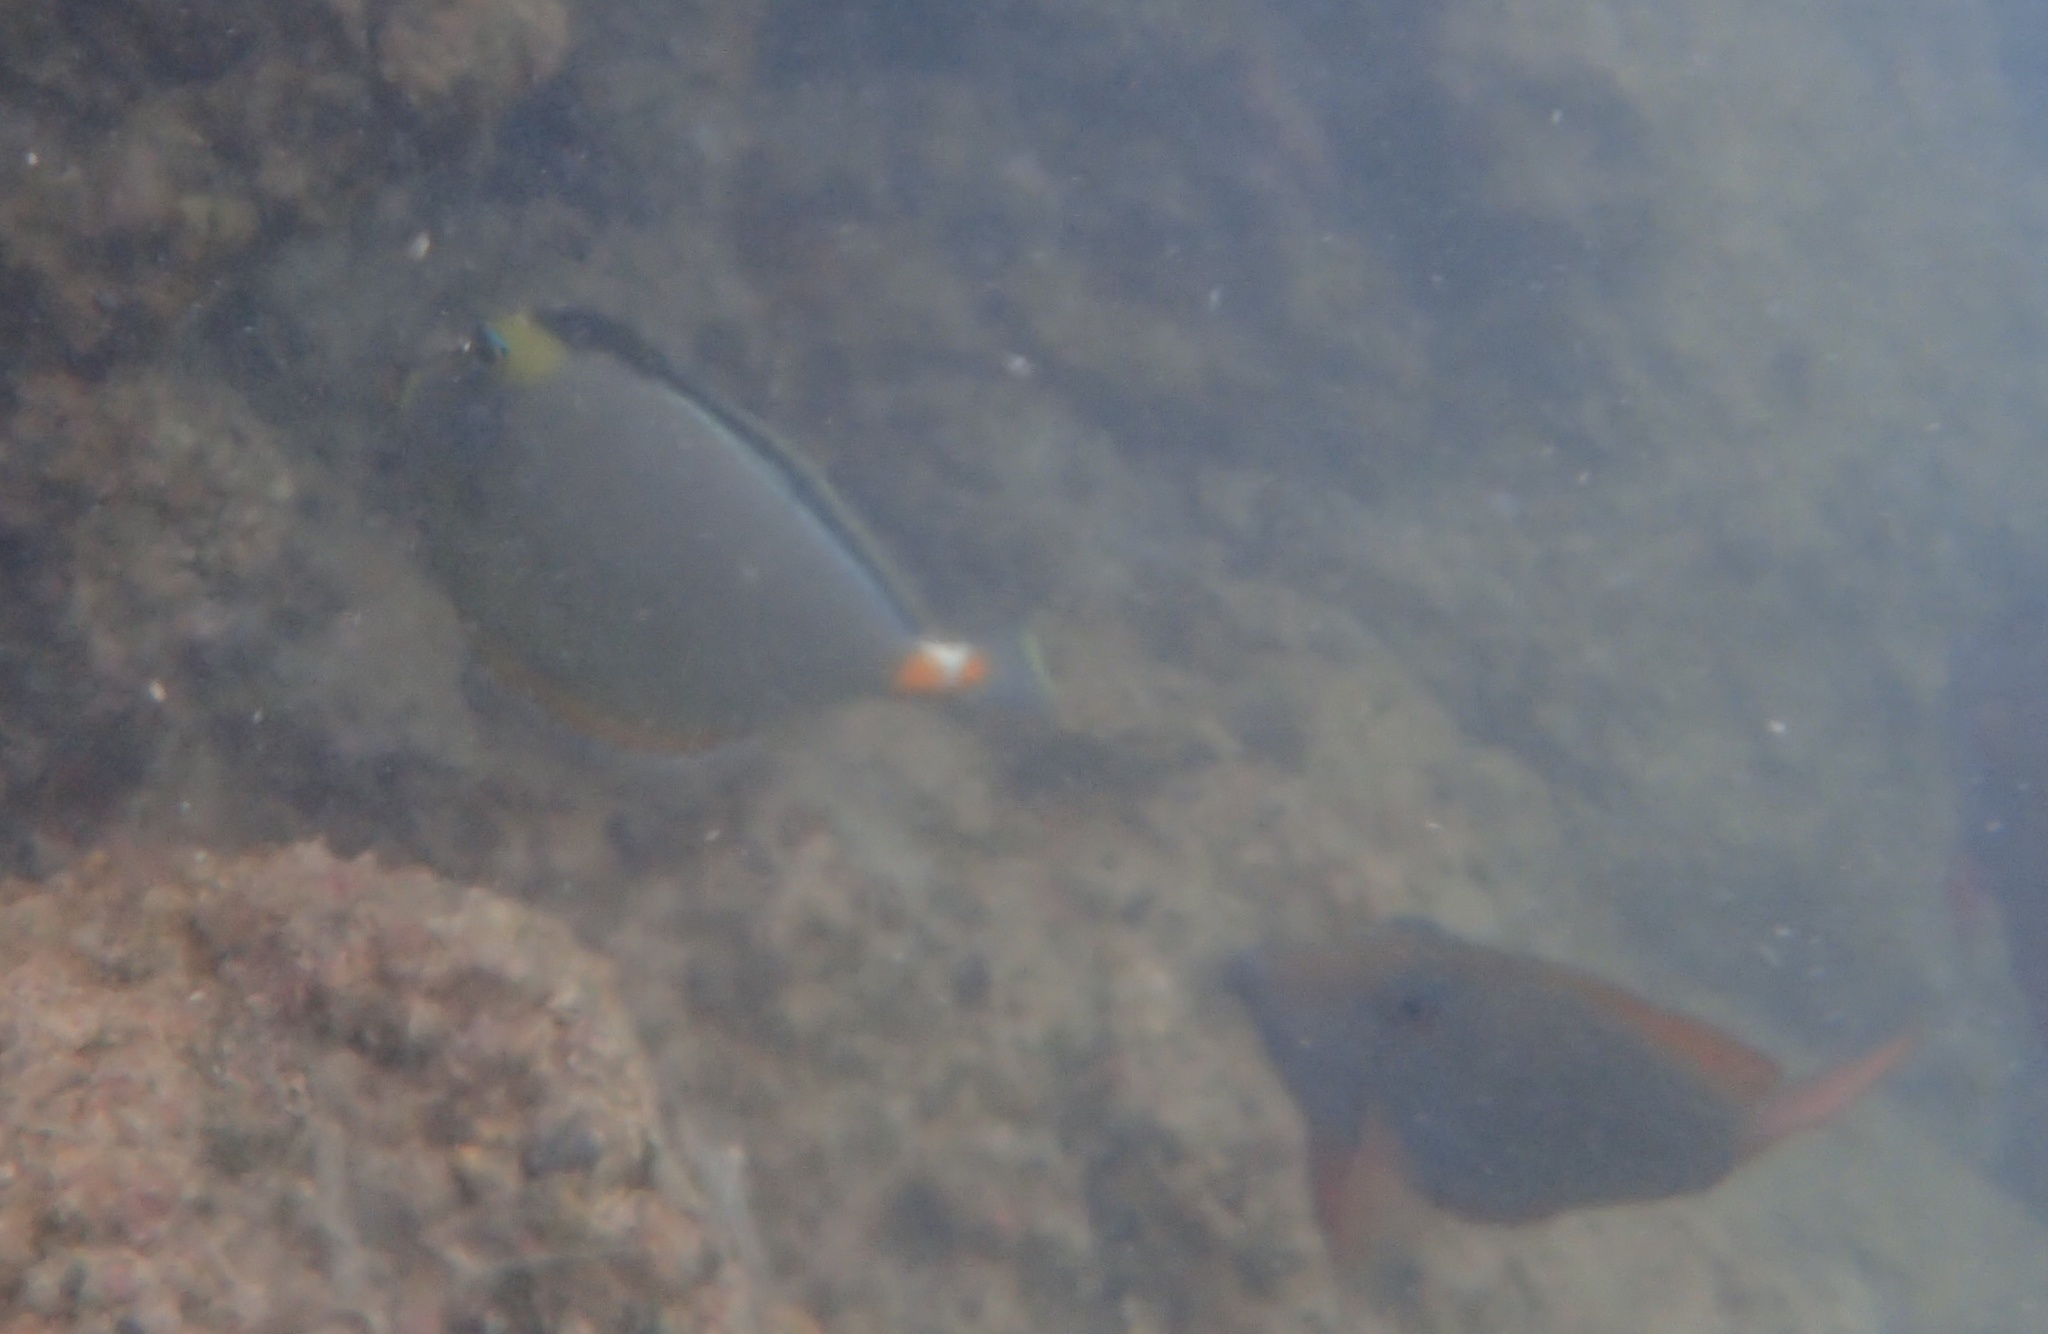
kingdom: Animalia
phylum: Chordata
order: Perciformes
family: Acanthuridae
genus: Naso
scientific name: Naso lituratus
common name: Orangespine unicornfish
